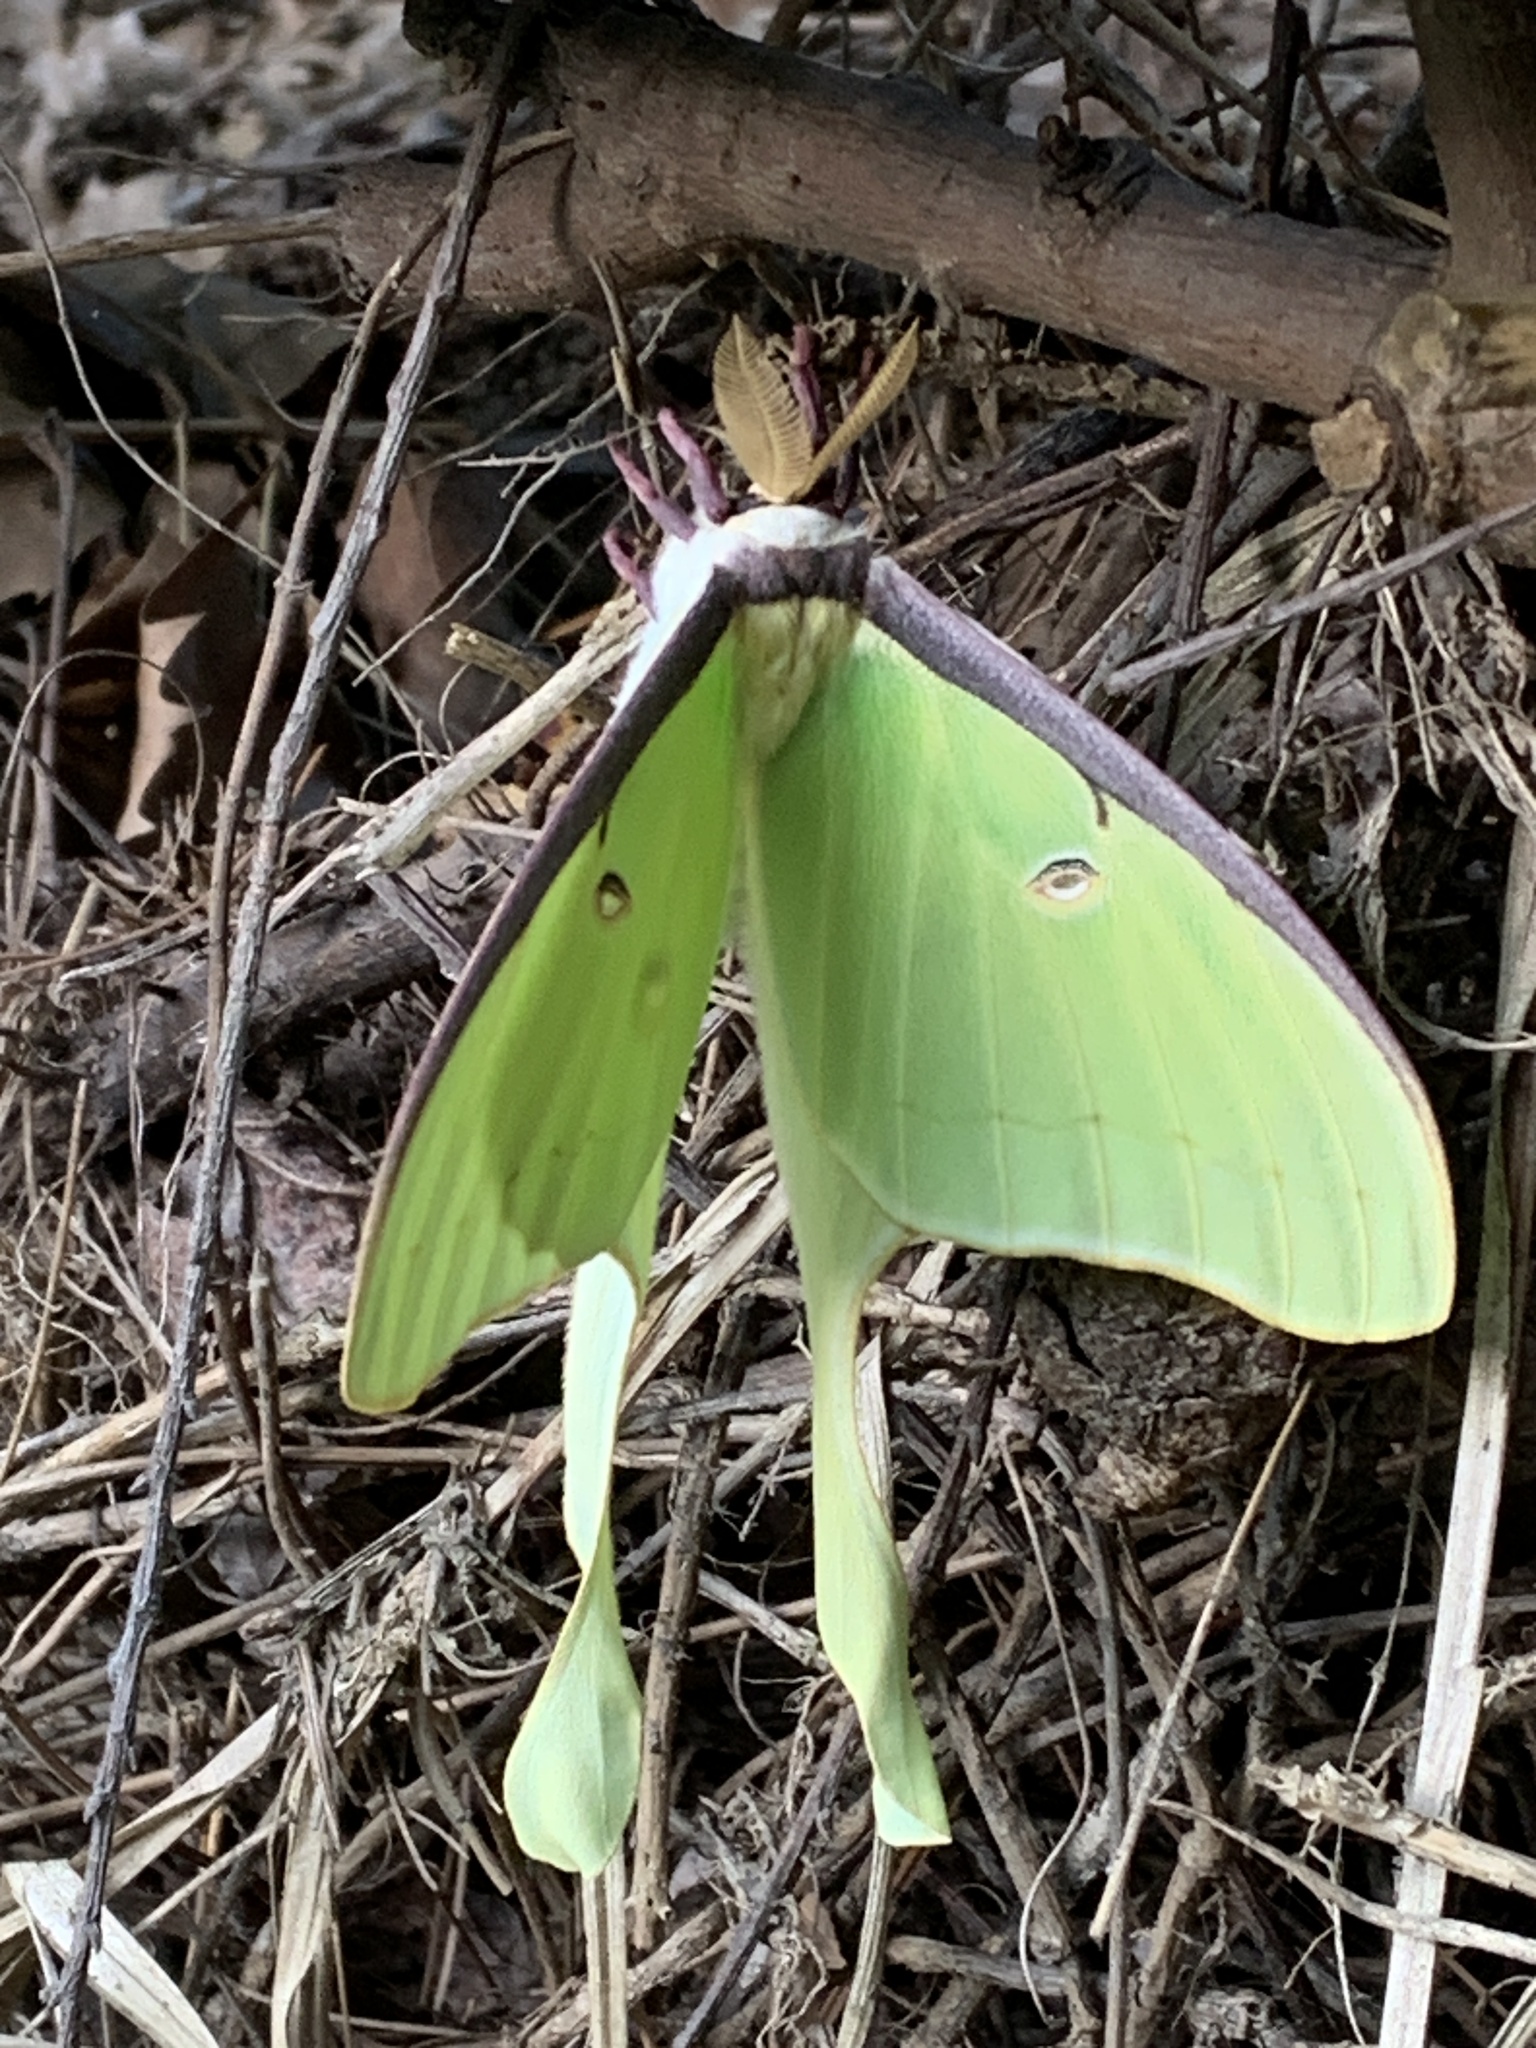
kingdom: Animalia
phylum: Arthropoda
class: Insecta
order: Lepidoptera
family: Saturniidae
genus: Actias
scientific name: Actias luna
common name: Luna moth
